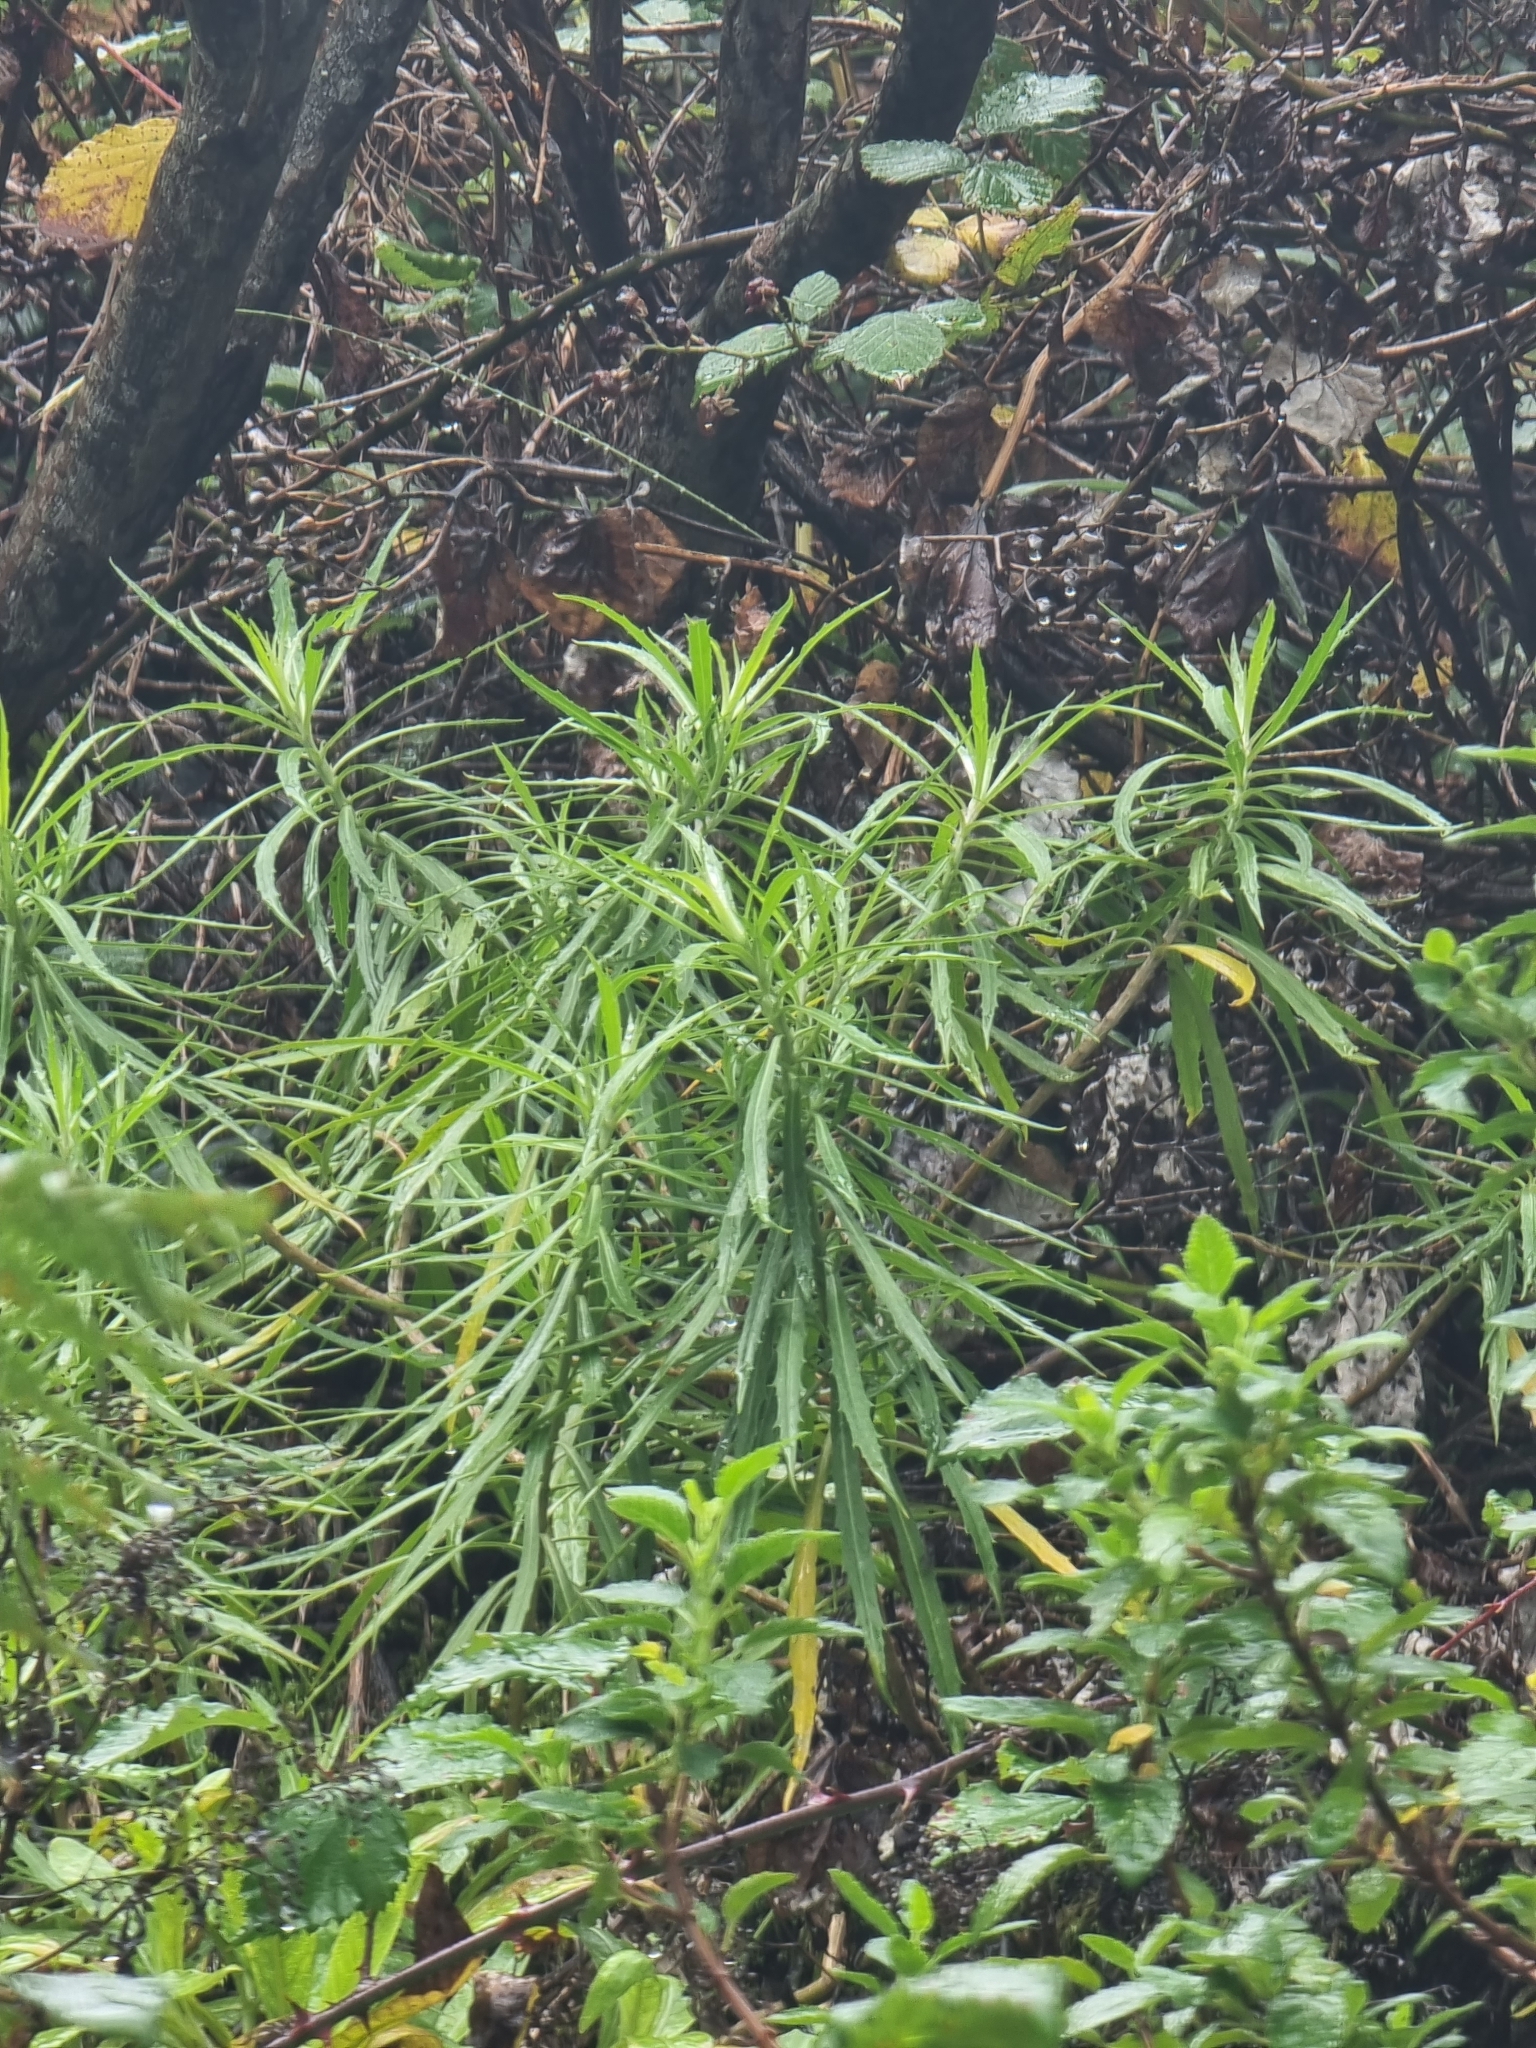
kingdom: Plantae
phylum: Tracheophyta
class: Magnoliopsida
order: Brassicales
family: Brassicaceae
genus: Erysimum
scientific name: Erysimum bicolor
